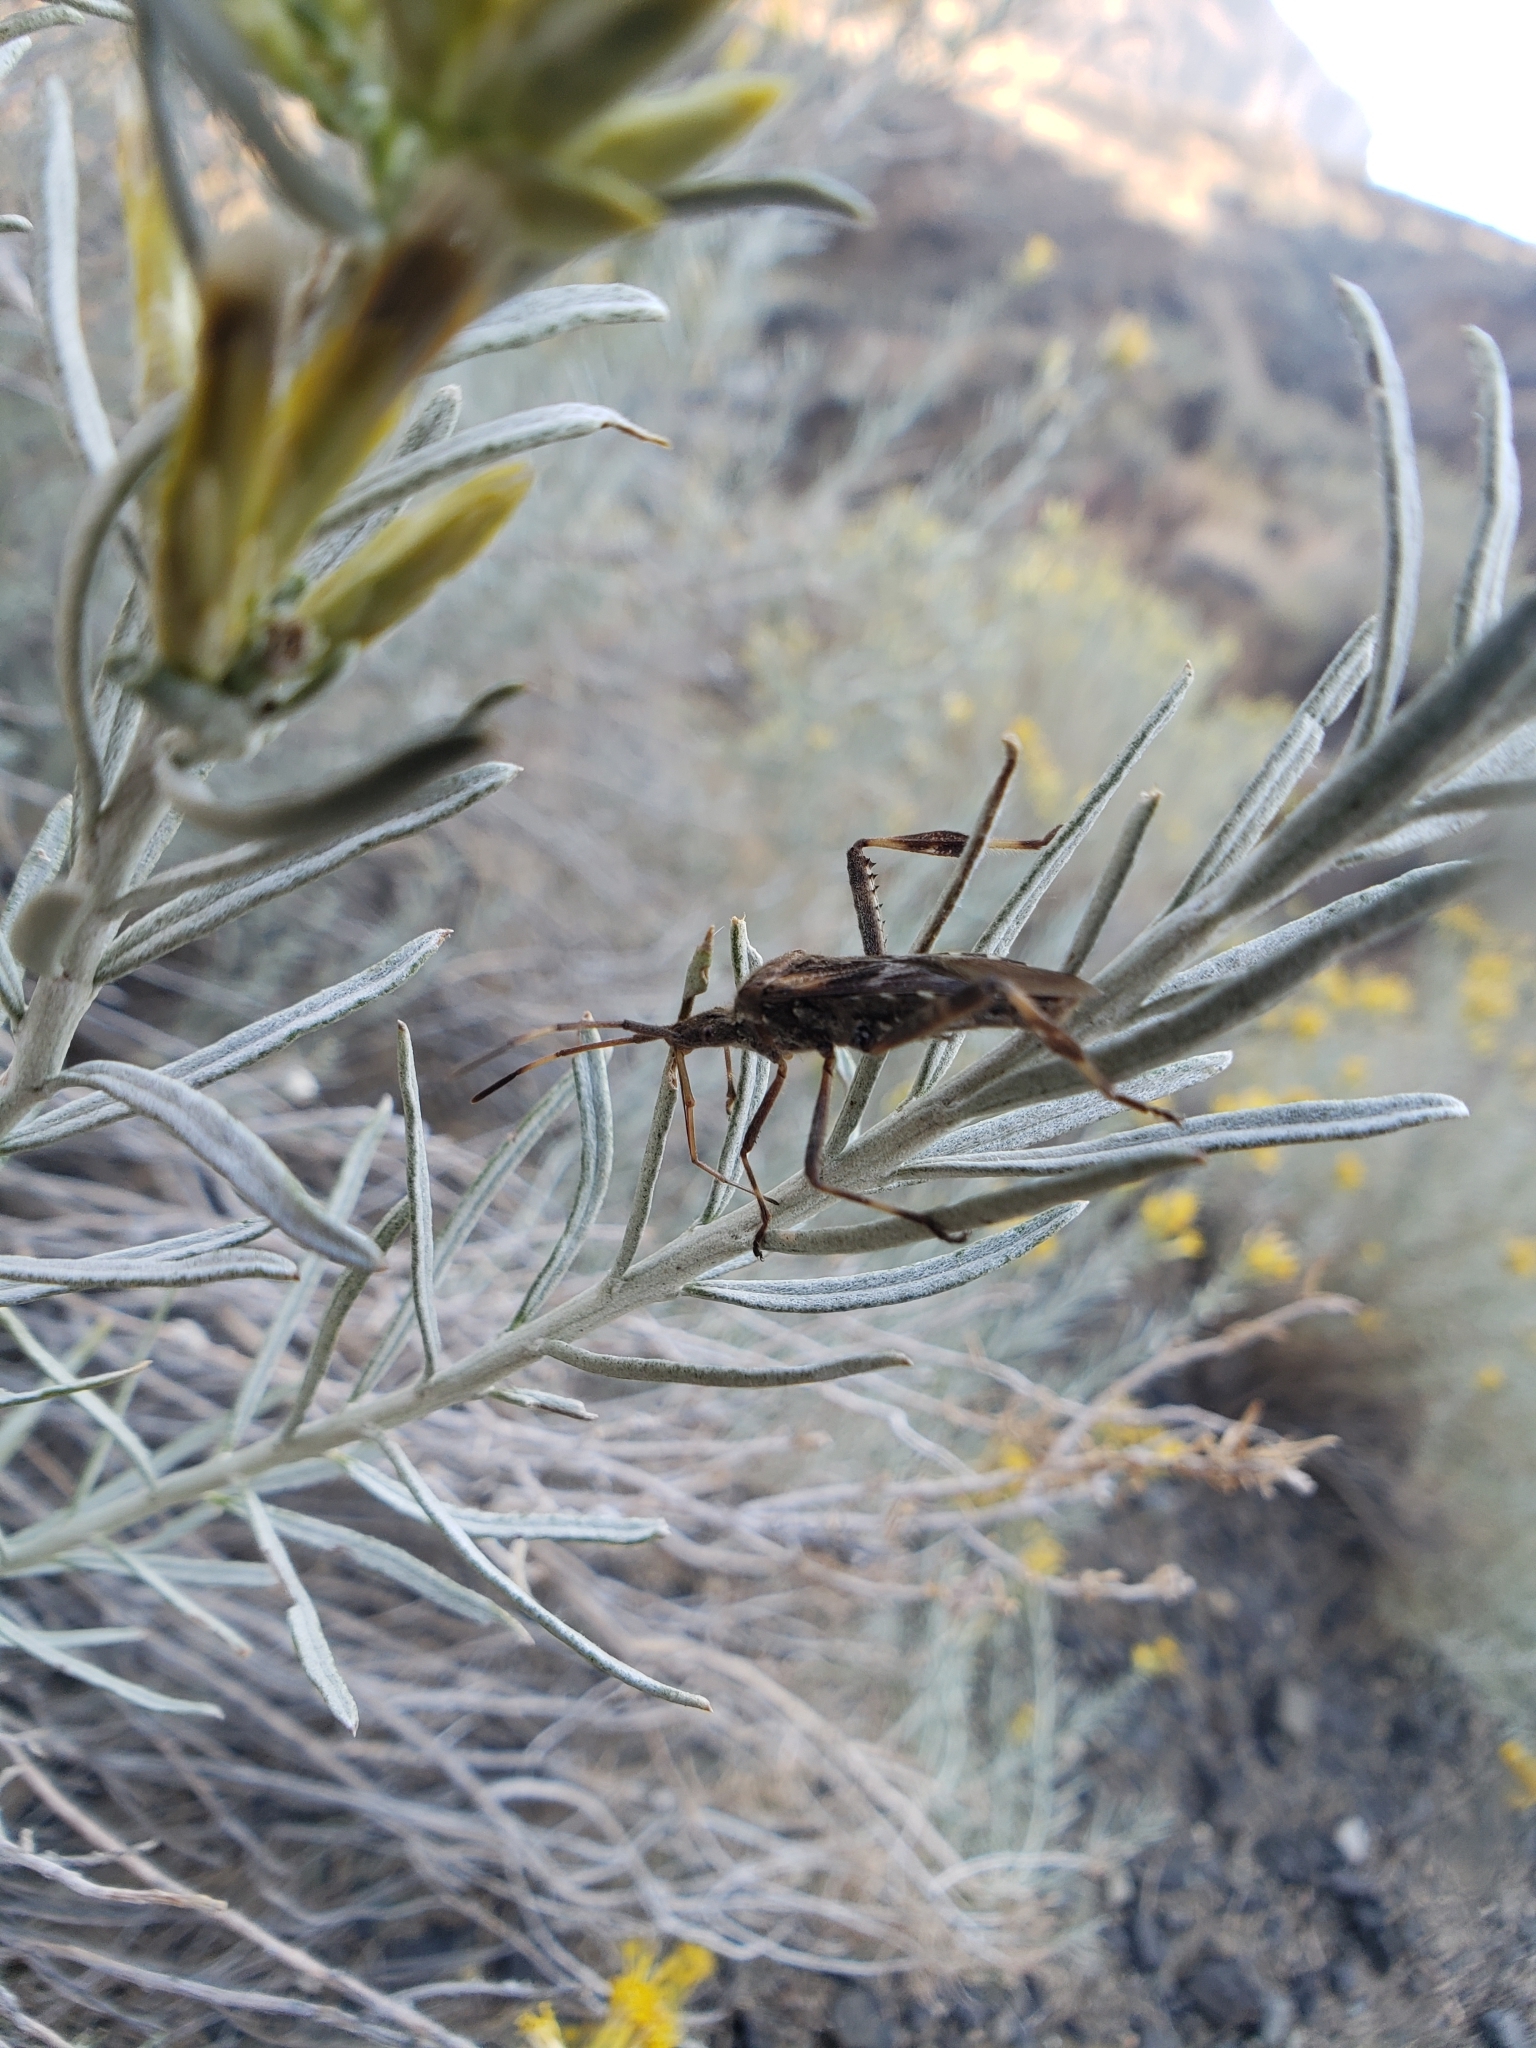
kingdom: Animalia
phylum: Arthropoda
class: Insecta
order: Hemiptera
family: Coreidae
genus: Leptoglossus
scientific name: Leptoglossus occidentalis
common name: Western conifer-seed bug
